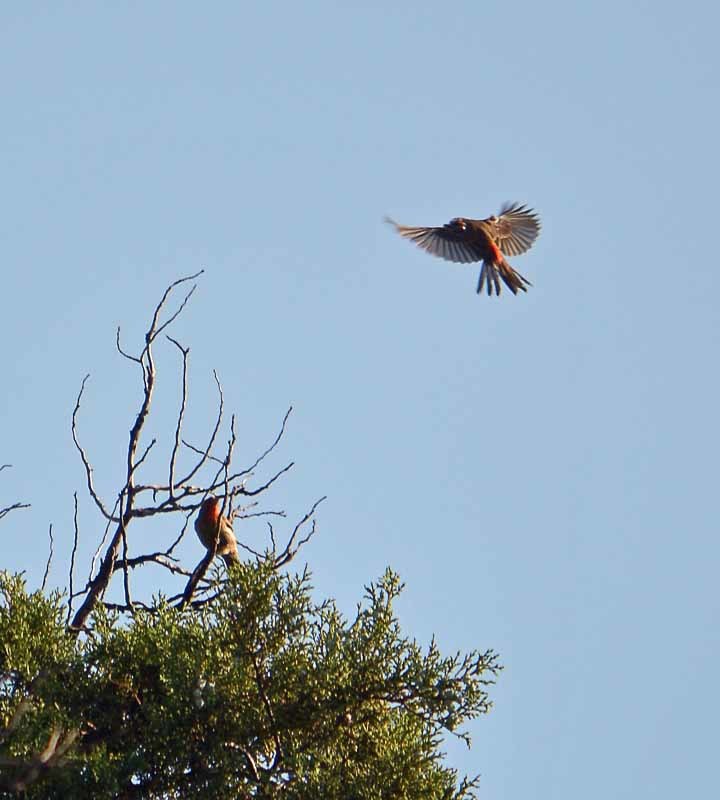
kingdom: Animalia
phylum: Chordata
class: Aves
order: Passeriformes
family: Fringillidae
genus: Haemorhous
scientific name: Haemorhous mexicanus
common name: House finch
